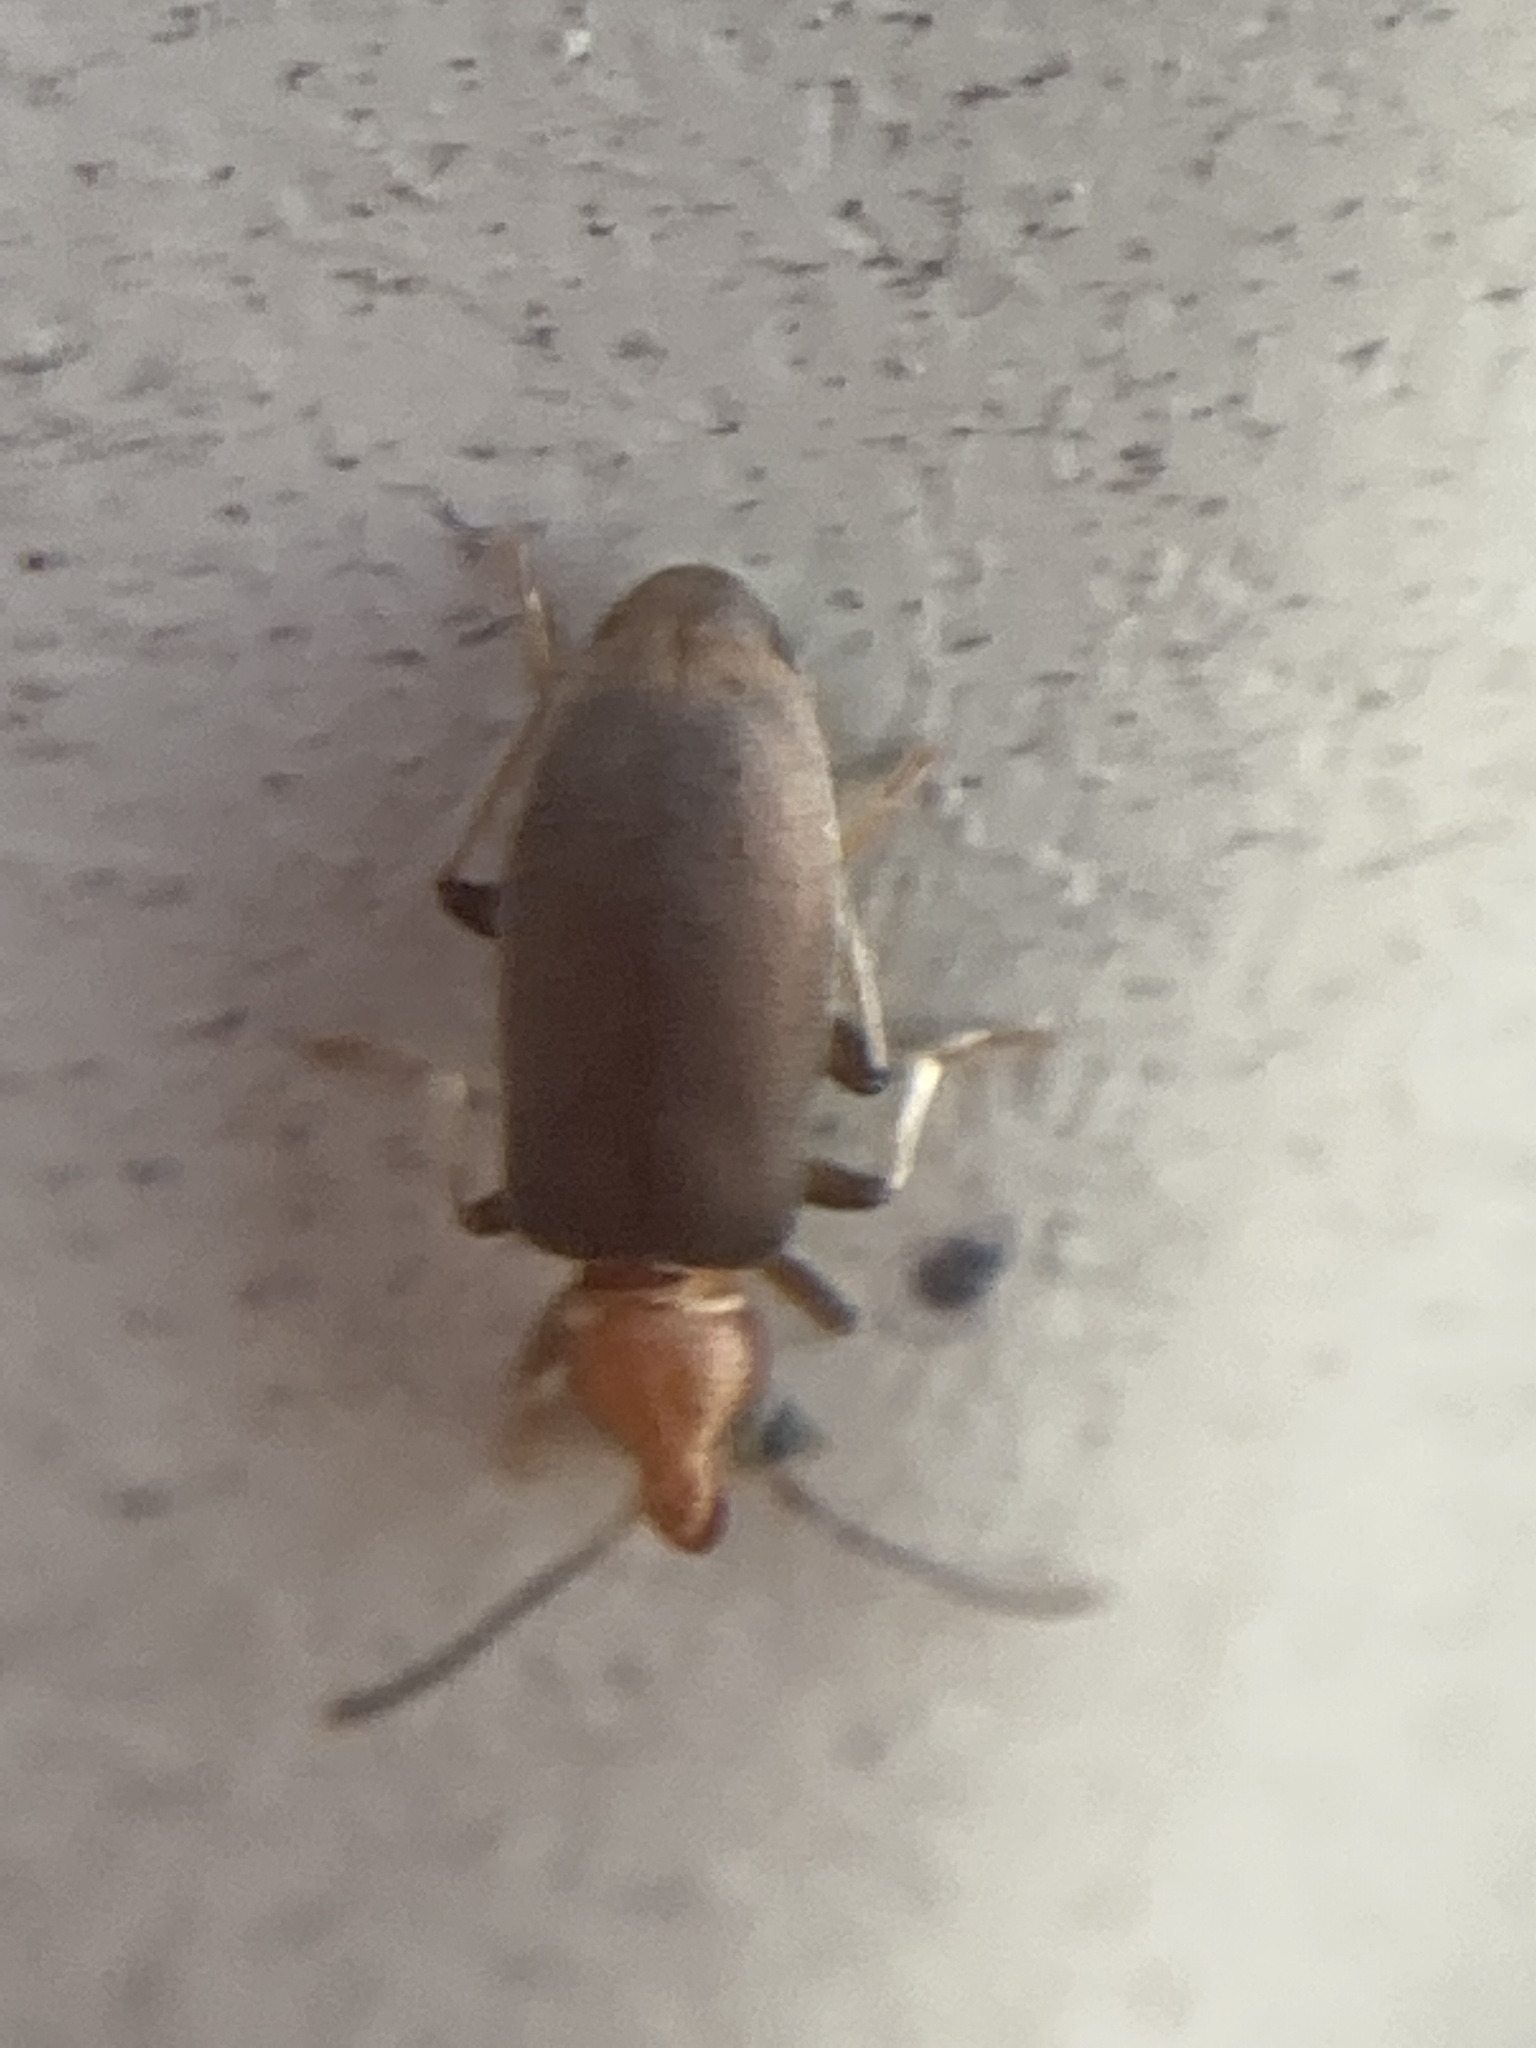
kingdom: Animalia
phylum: Arthropoda
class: Insecta
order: Coleoptera
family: Anthicidae
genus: Notoxus
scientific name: Notoxus murinipennis
